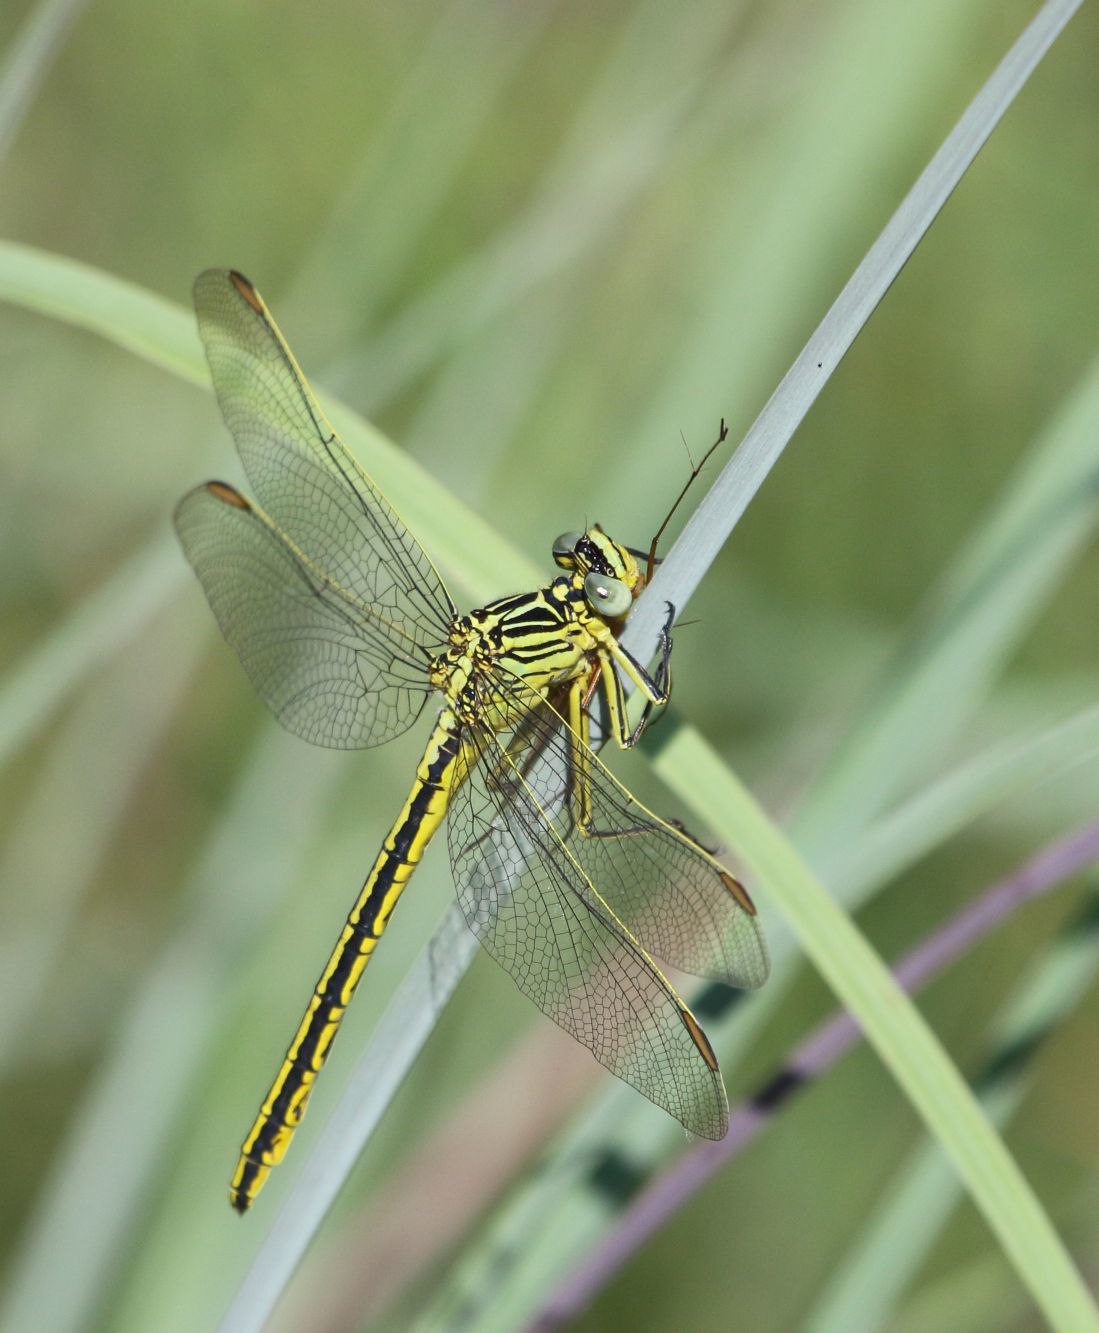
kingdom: Animalia
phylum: Arthropoda
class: Insecta
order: Odonata
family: Gomphidae
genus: Notogomphus
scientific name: Notogomphus praetorius
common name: Southern yellowjack
